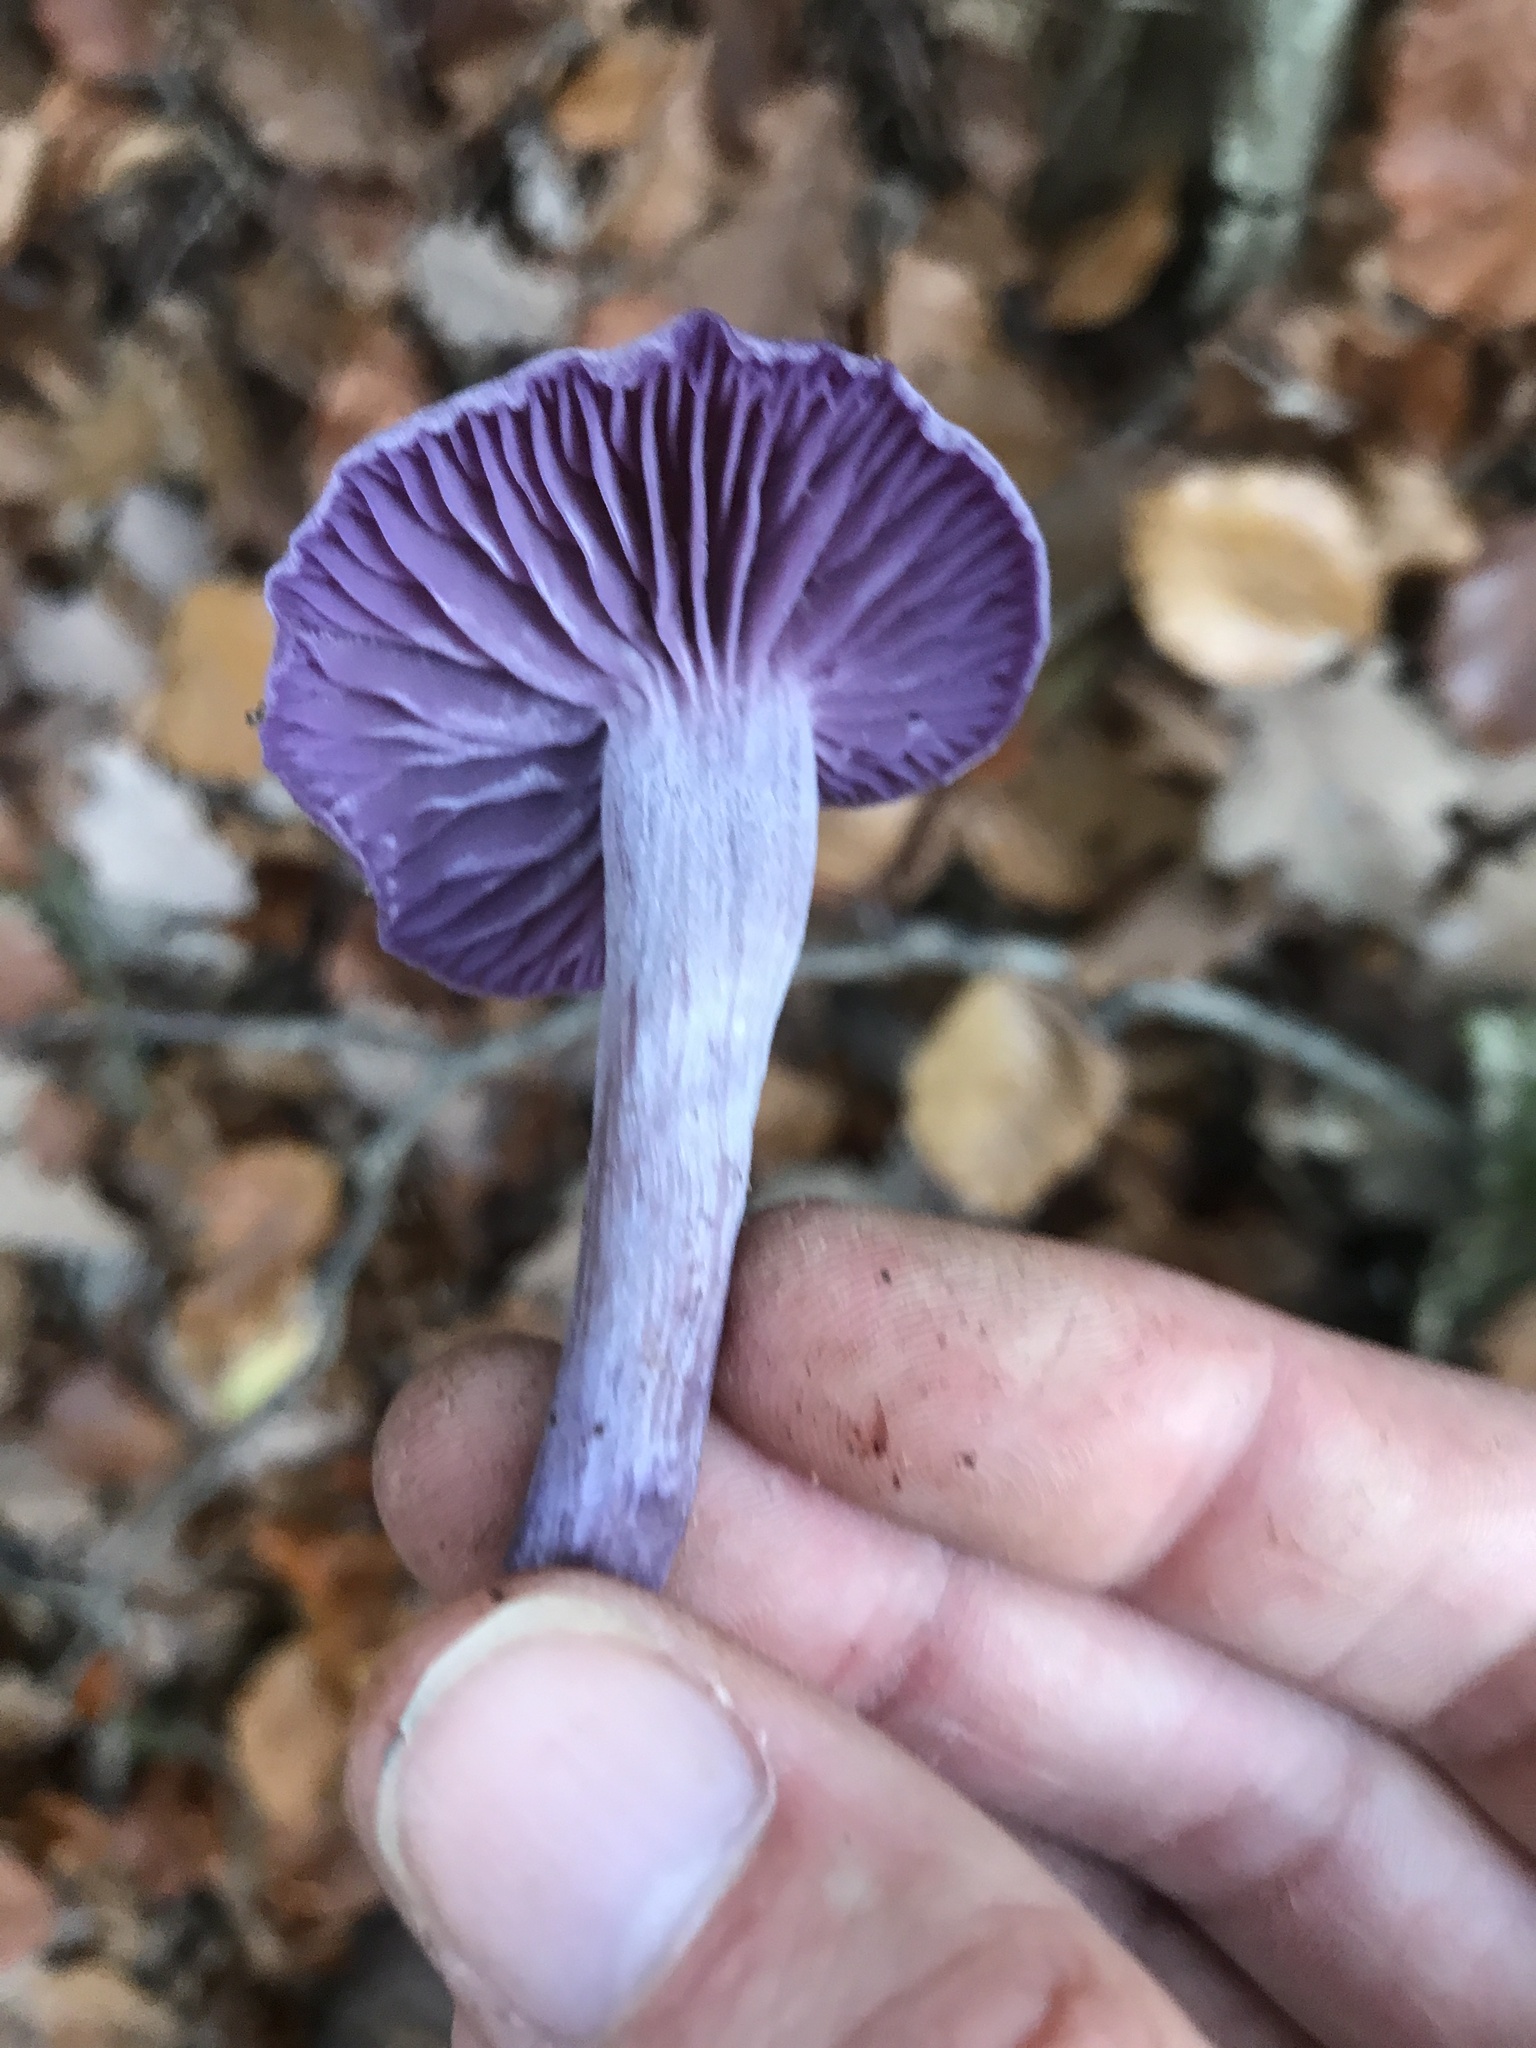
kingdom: Fungi
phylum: Basidiomycota
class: Agaricomycetes
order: Agaricales
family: Hydnangiaceae
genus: Laccaria
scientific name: Laccaria amethystina
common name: Amethyst deceiver
